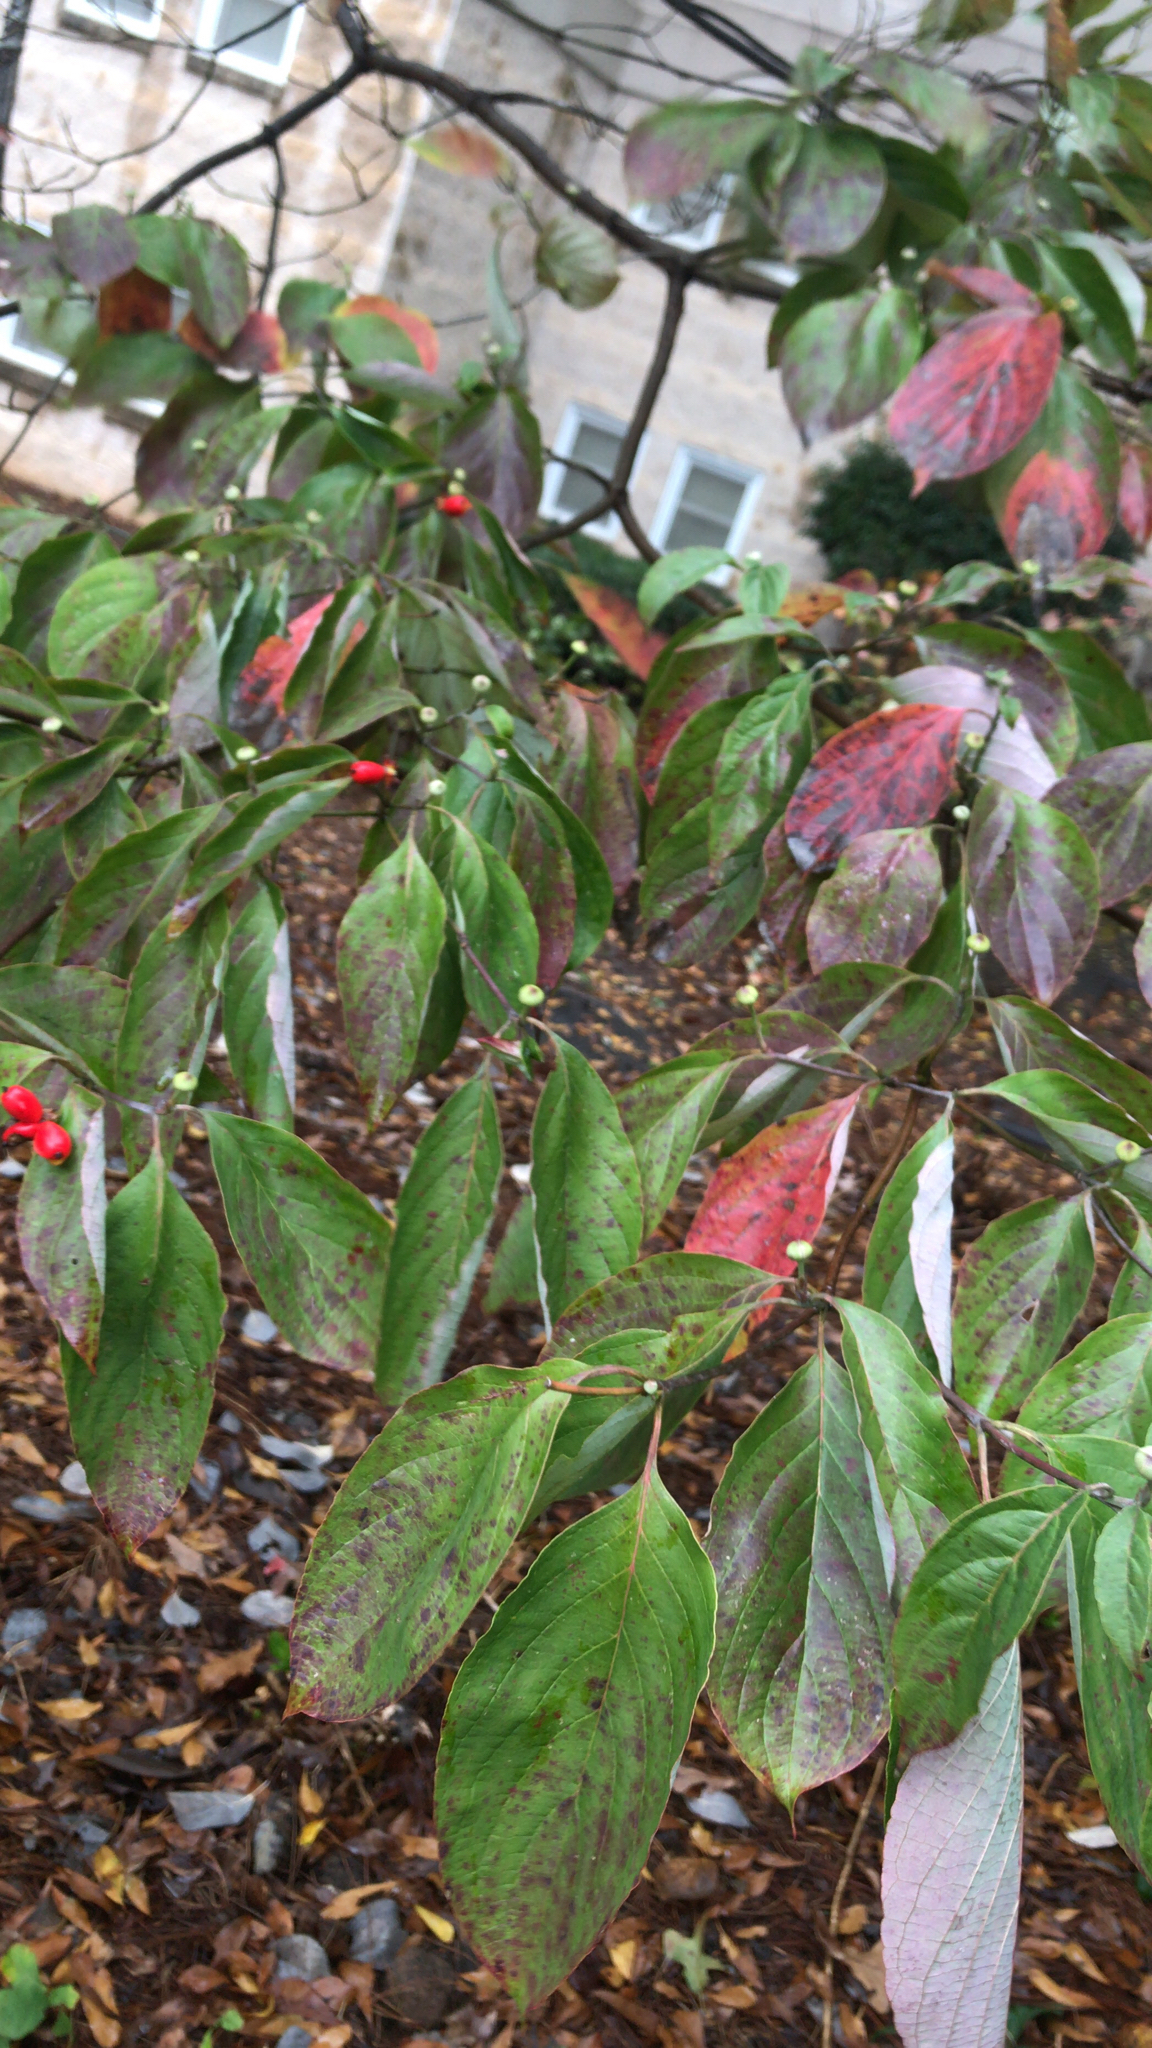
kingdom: Plantae
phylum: Tracheophyta
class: Magnoliopsida
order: Cornales
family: Cornaceae
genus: Cornus
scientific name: Cornus florida
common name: Flowering dogwood
